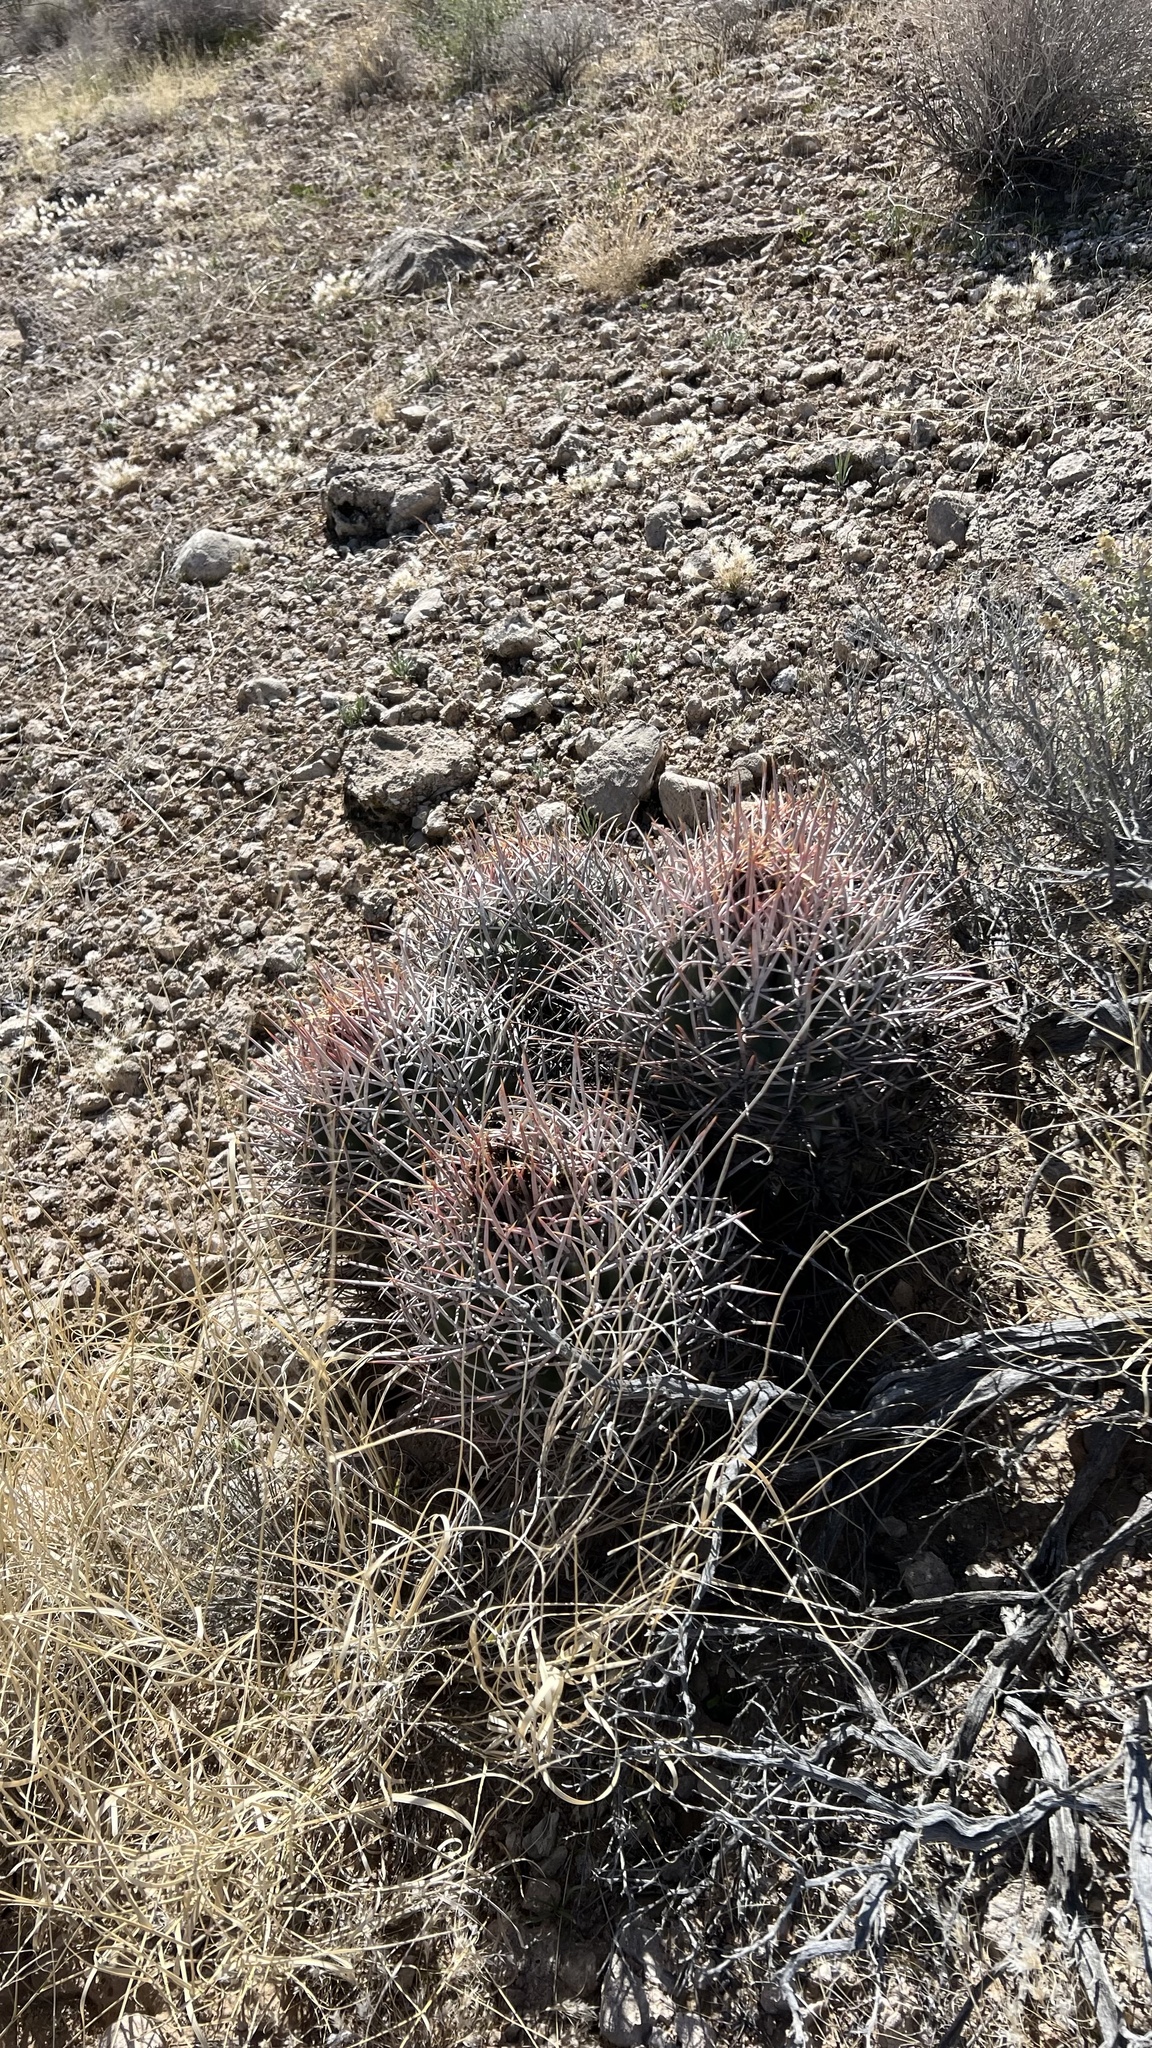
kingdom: Plantae
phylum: Tracheophyta
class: Magnoliopsida
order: Caryophyllales
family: Cactaceae
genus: Echinocactus
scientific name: Echinocactus polycephalus
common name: Cottontop cactus
